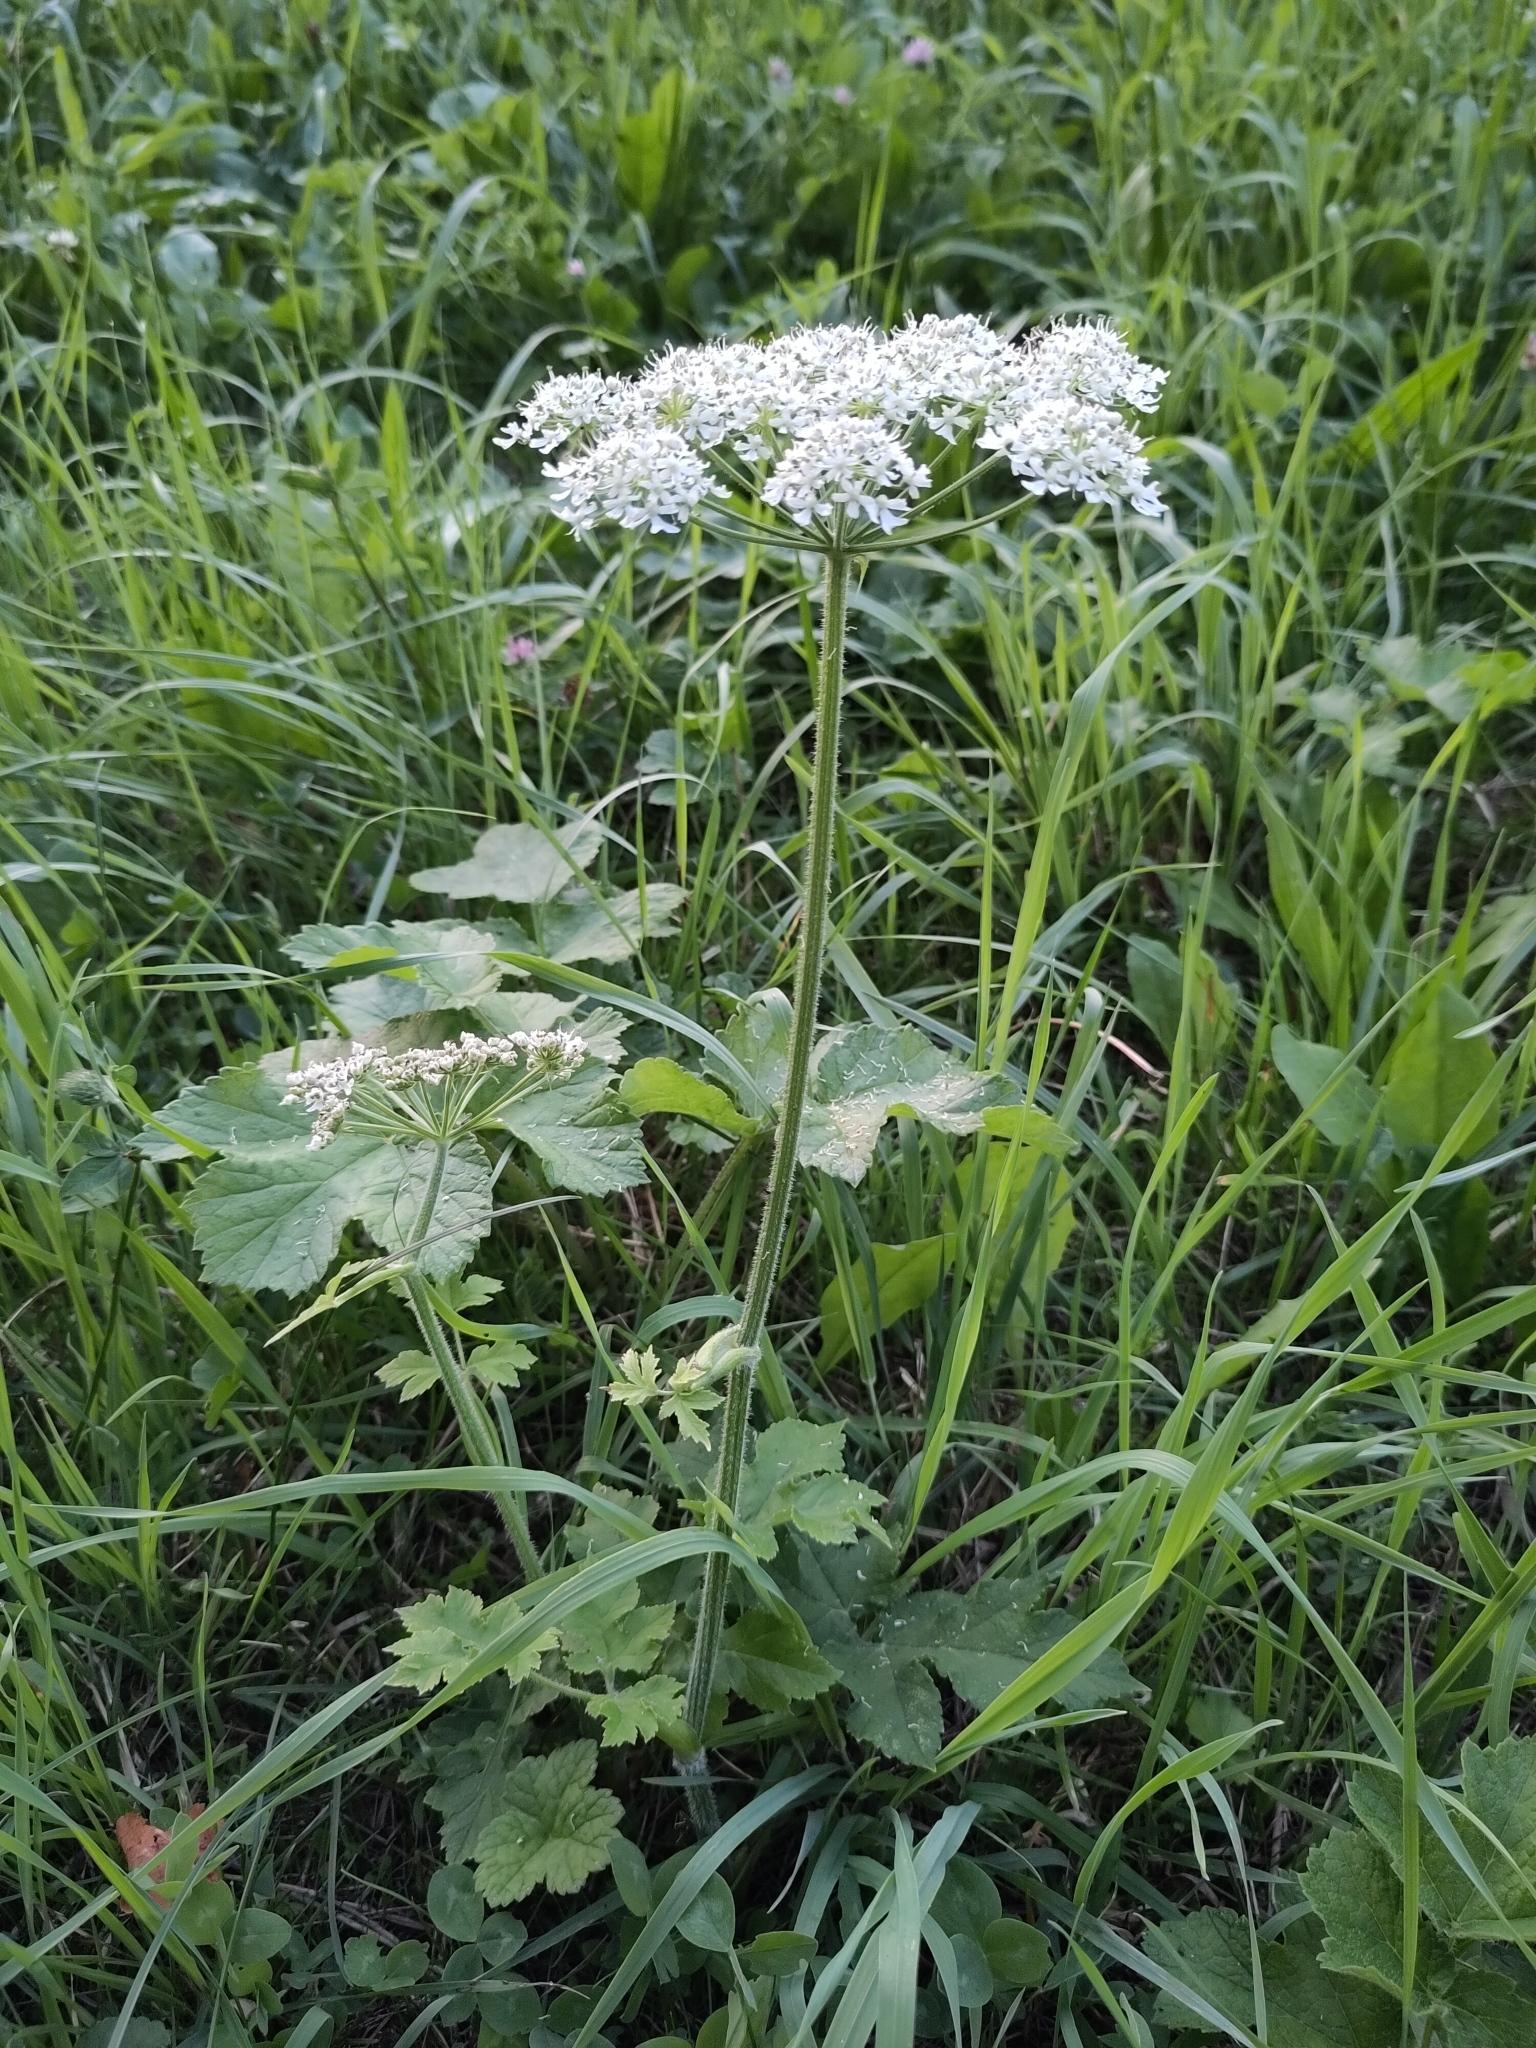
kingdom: Plantae
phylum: Tracheophyta
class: Magnoliopsida
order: Apiales
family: Apiaceae
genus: Heracleum
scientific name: Heracleum sphondylium
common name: Hogweed
